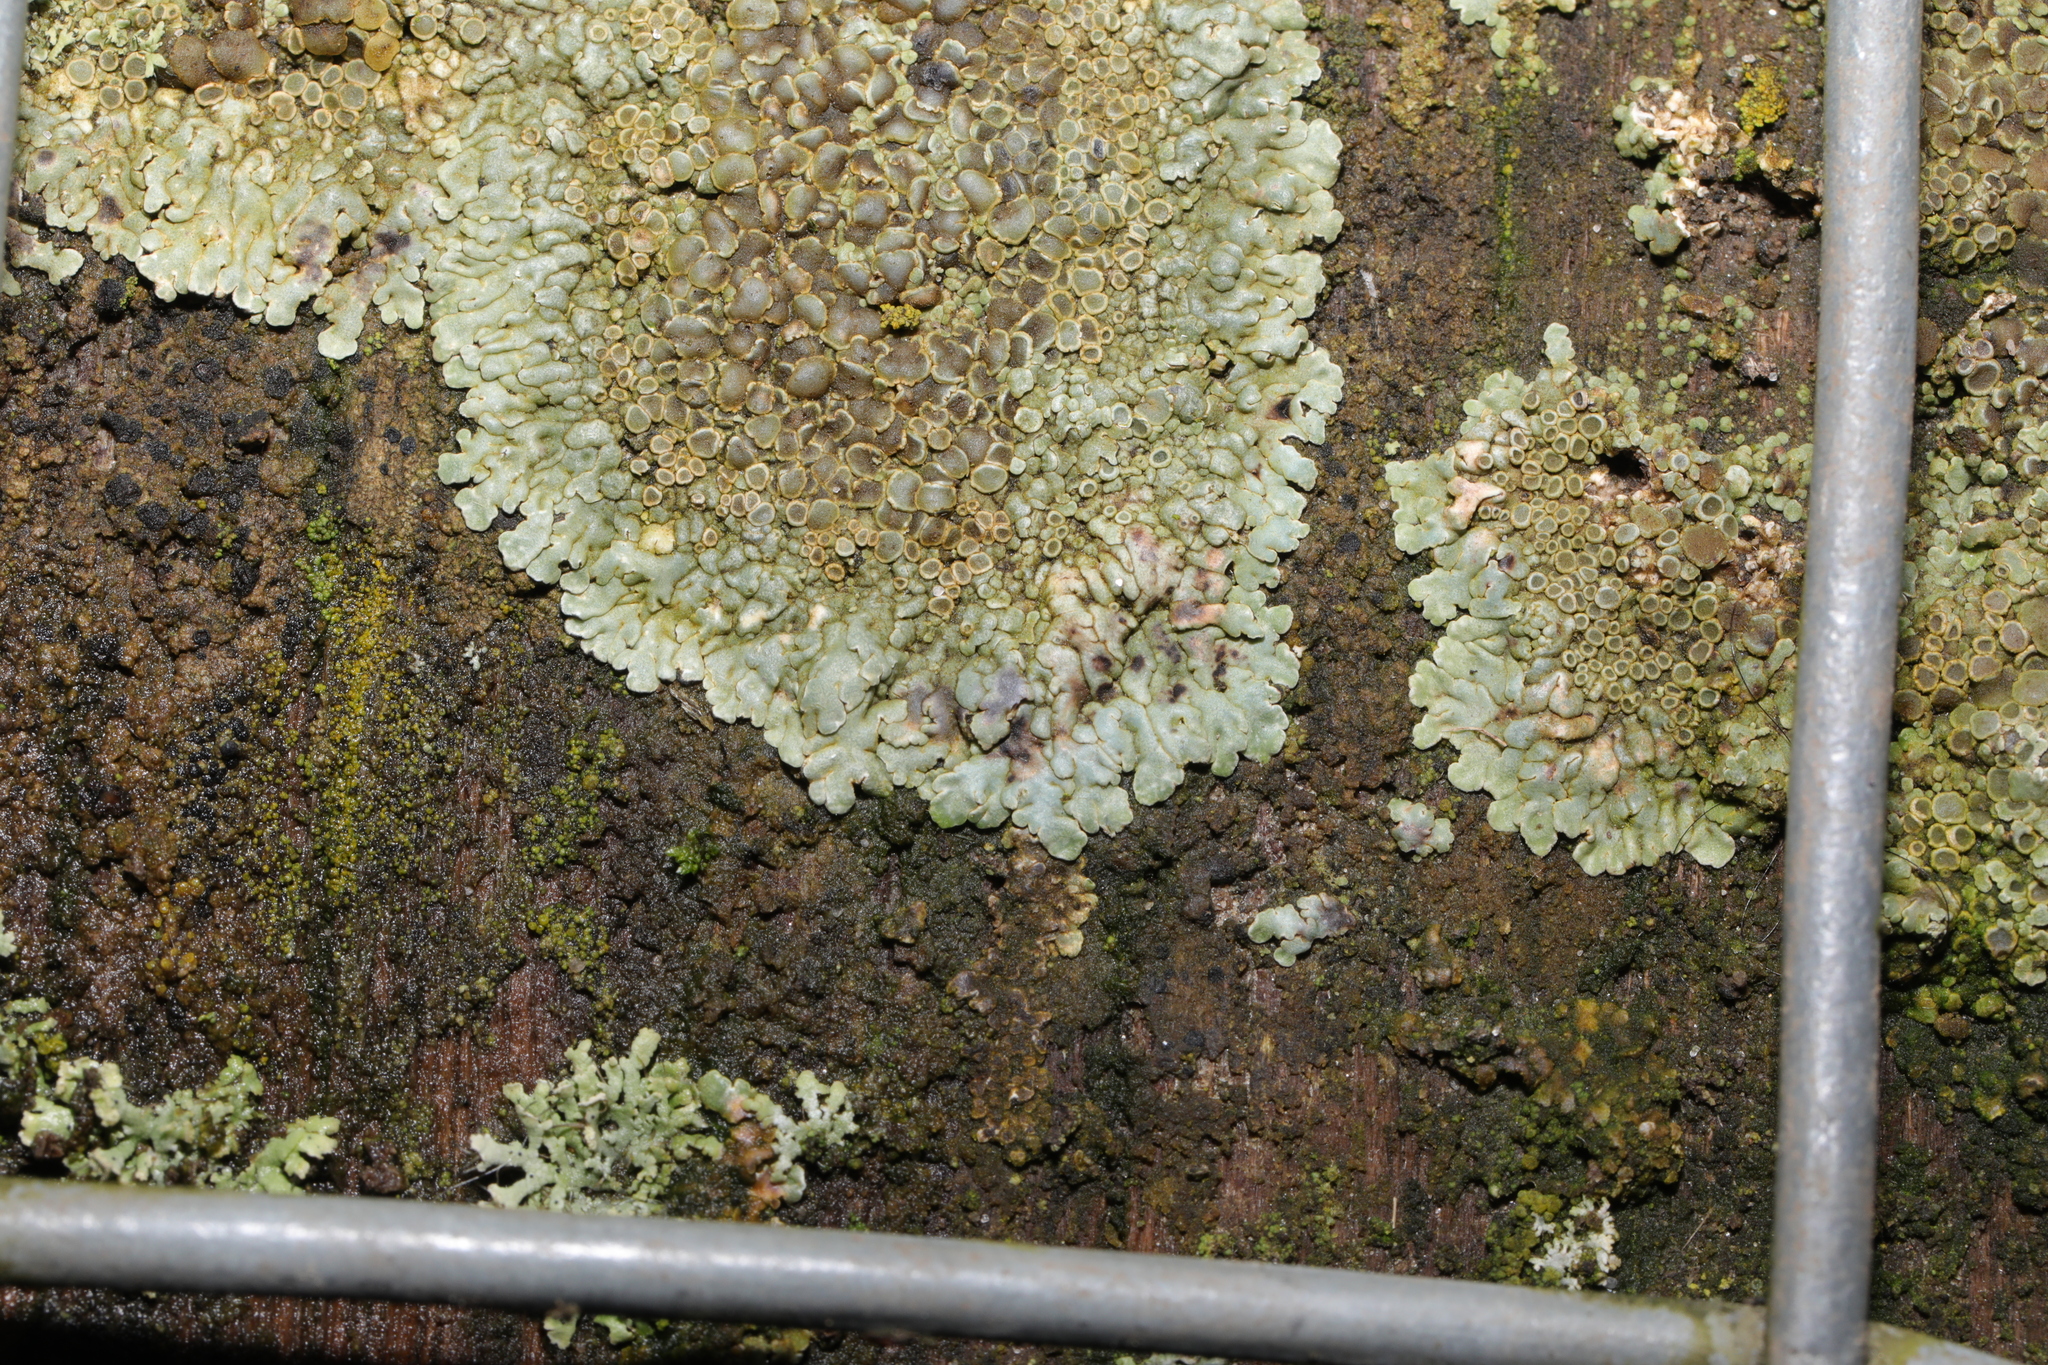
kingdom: Fungi
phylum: Ascomycota
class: Lecanoromycetes
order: Lecanorales
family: Lecanoraceae
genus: Protoparmeliopsis
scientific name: Protoparmeliopsis muralis
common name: Stonewall rim lichen
